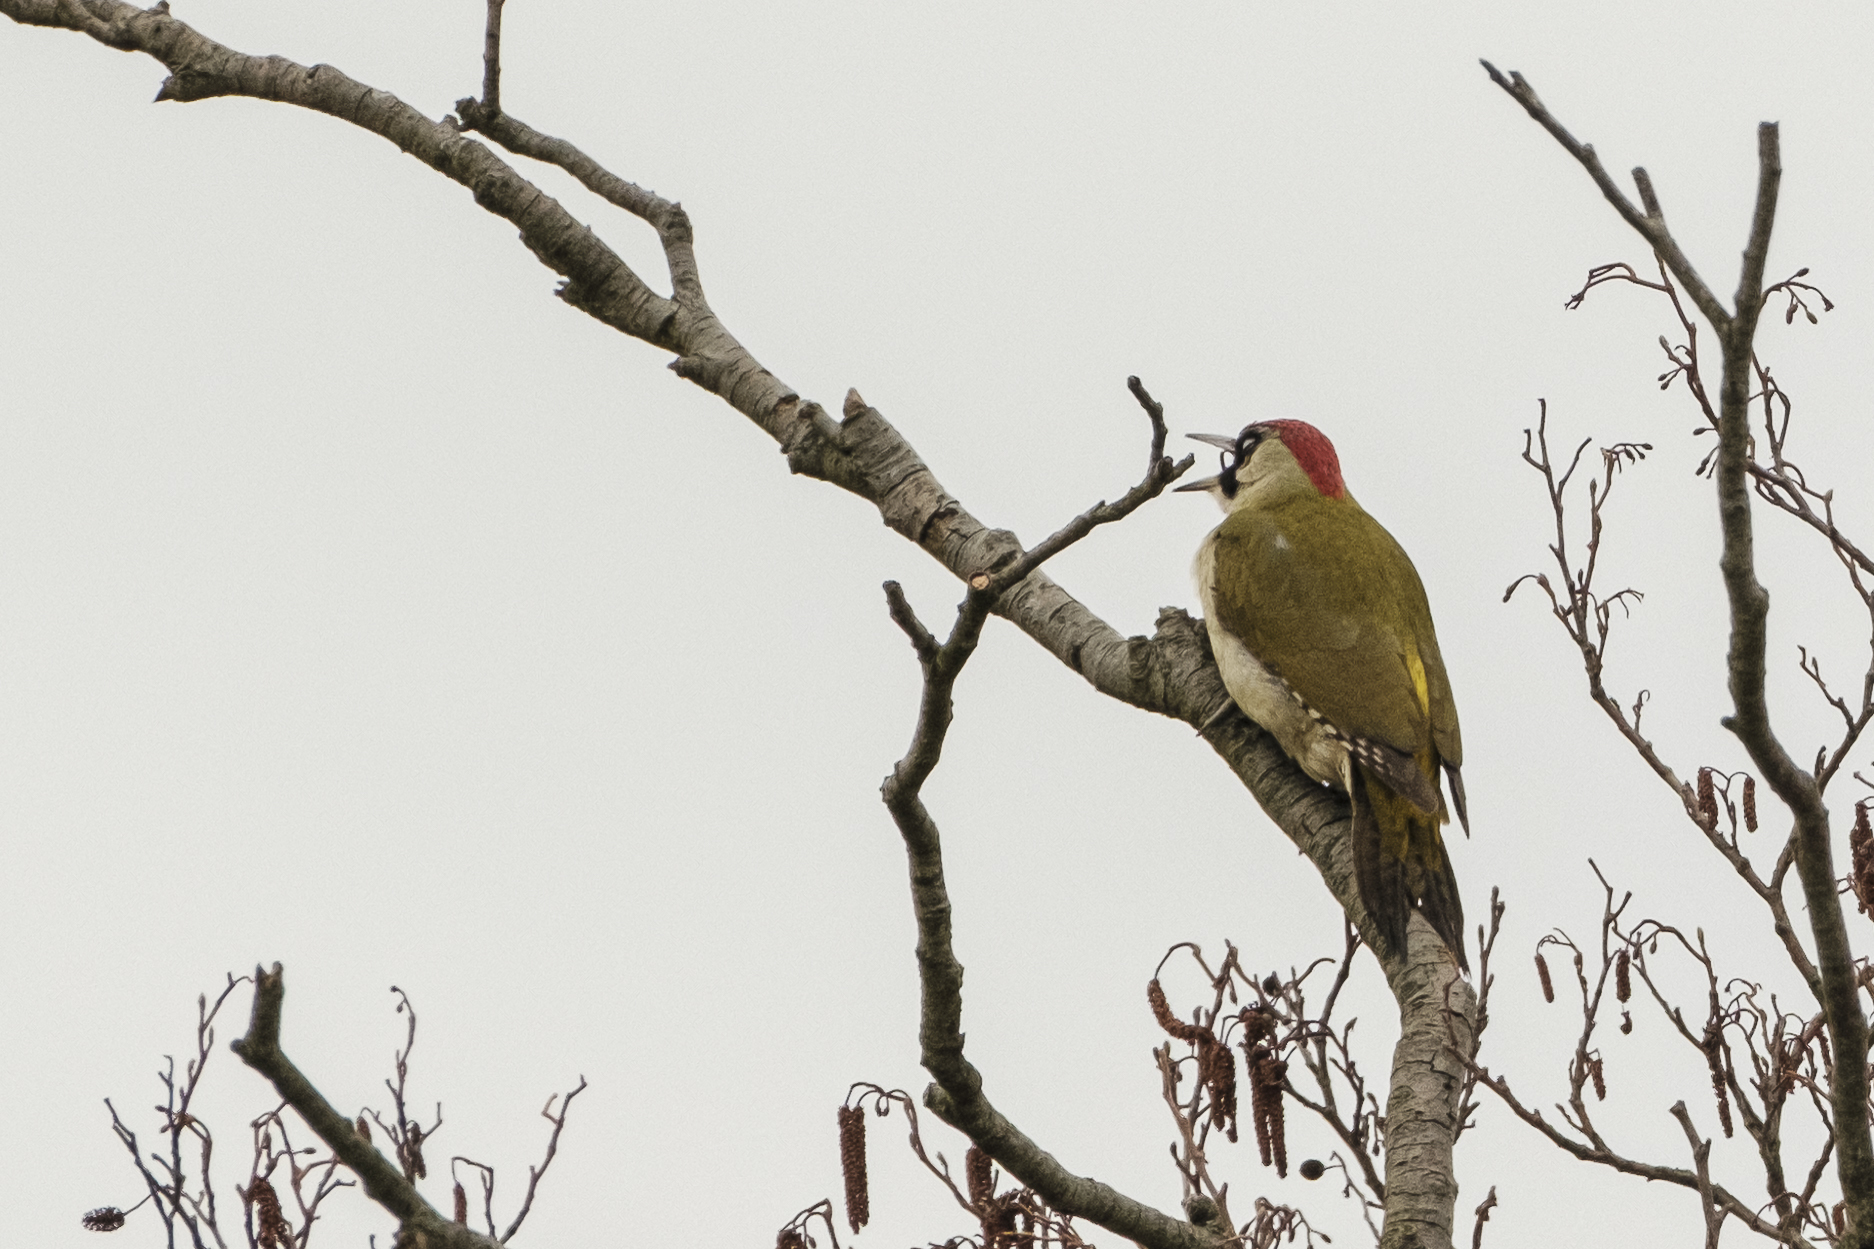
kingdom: Animalia
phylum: Chordata
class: Aves
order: Piciformes
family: Picidae
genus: Picus
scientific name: Picus viridis
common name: European green woodpecker
